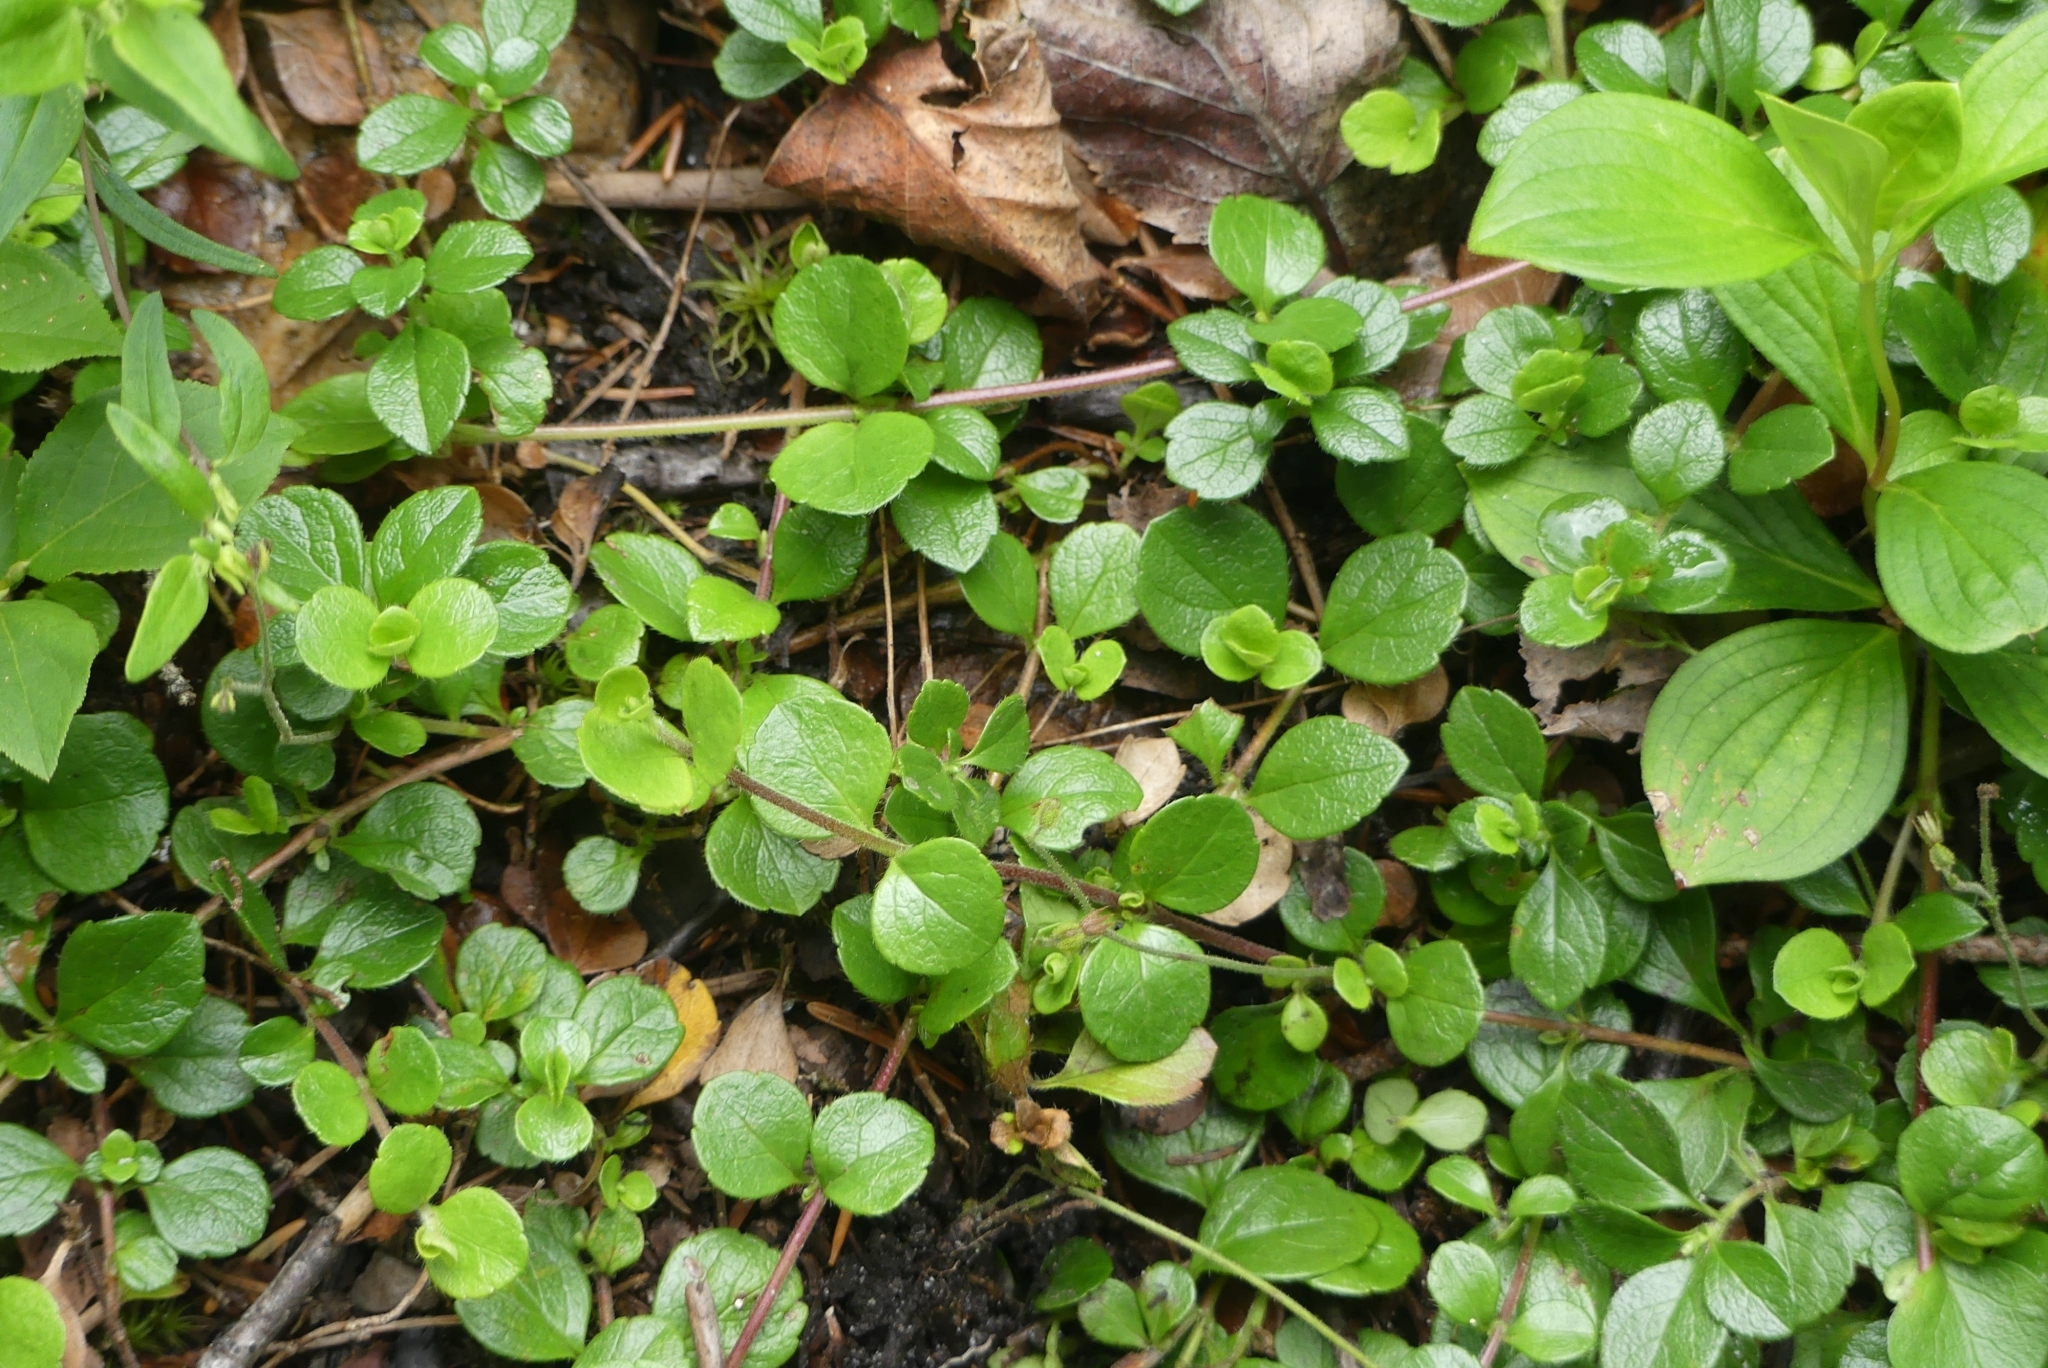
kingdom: Plantae
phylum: Tracheophyta
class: Magnoliopsida
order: Dipsacales
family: Caprifoliaceae
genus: Linnaea
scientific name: Linnaea borealis
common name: Twinflower
